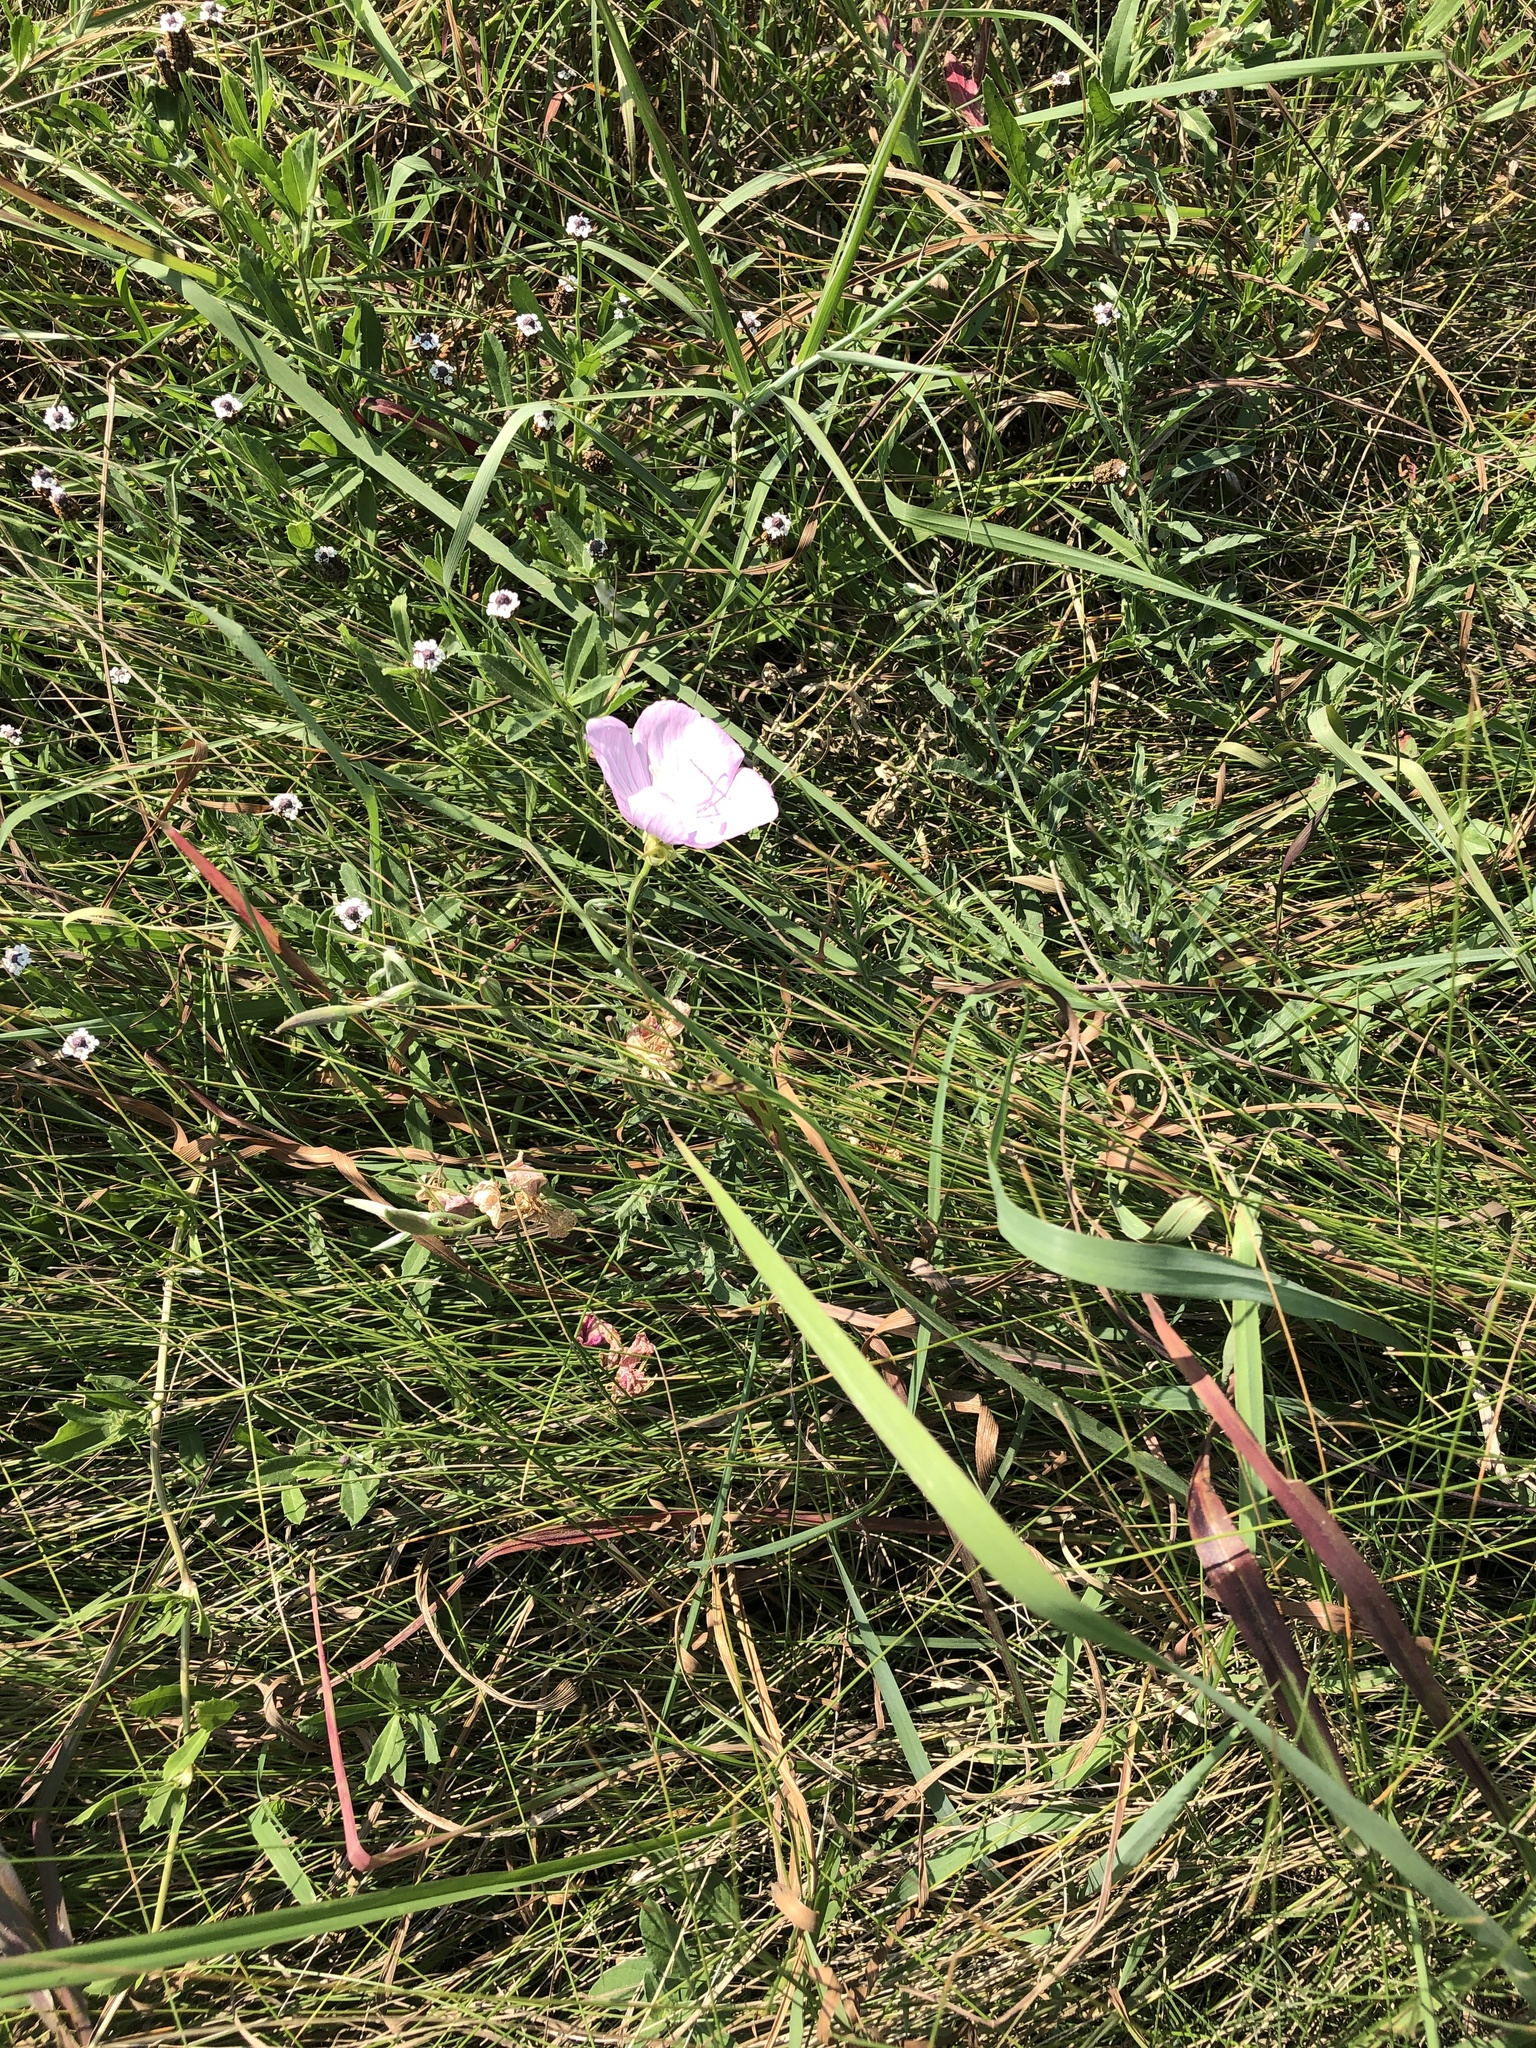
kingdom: Plantae
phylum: Tracheophyta
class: Magnoliopsida
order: Myrtales
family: Onagraceae
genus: Oenothera
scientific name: Oenothera speciosa
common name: White evening-primrose
